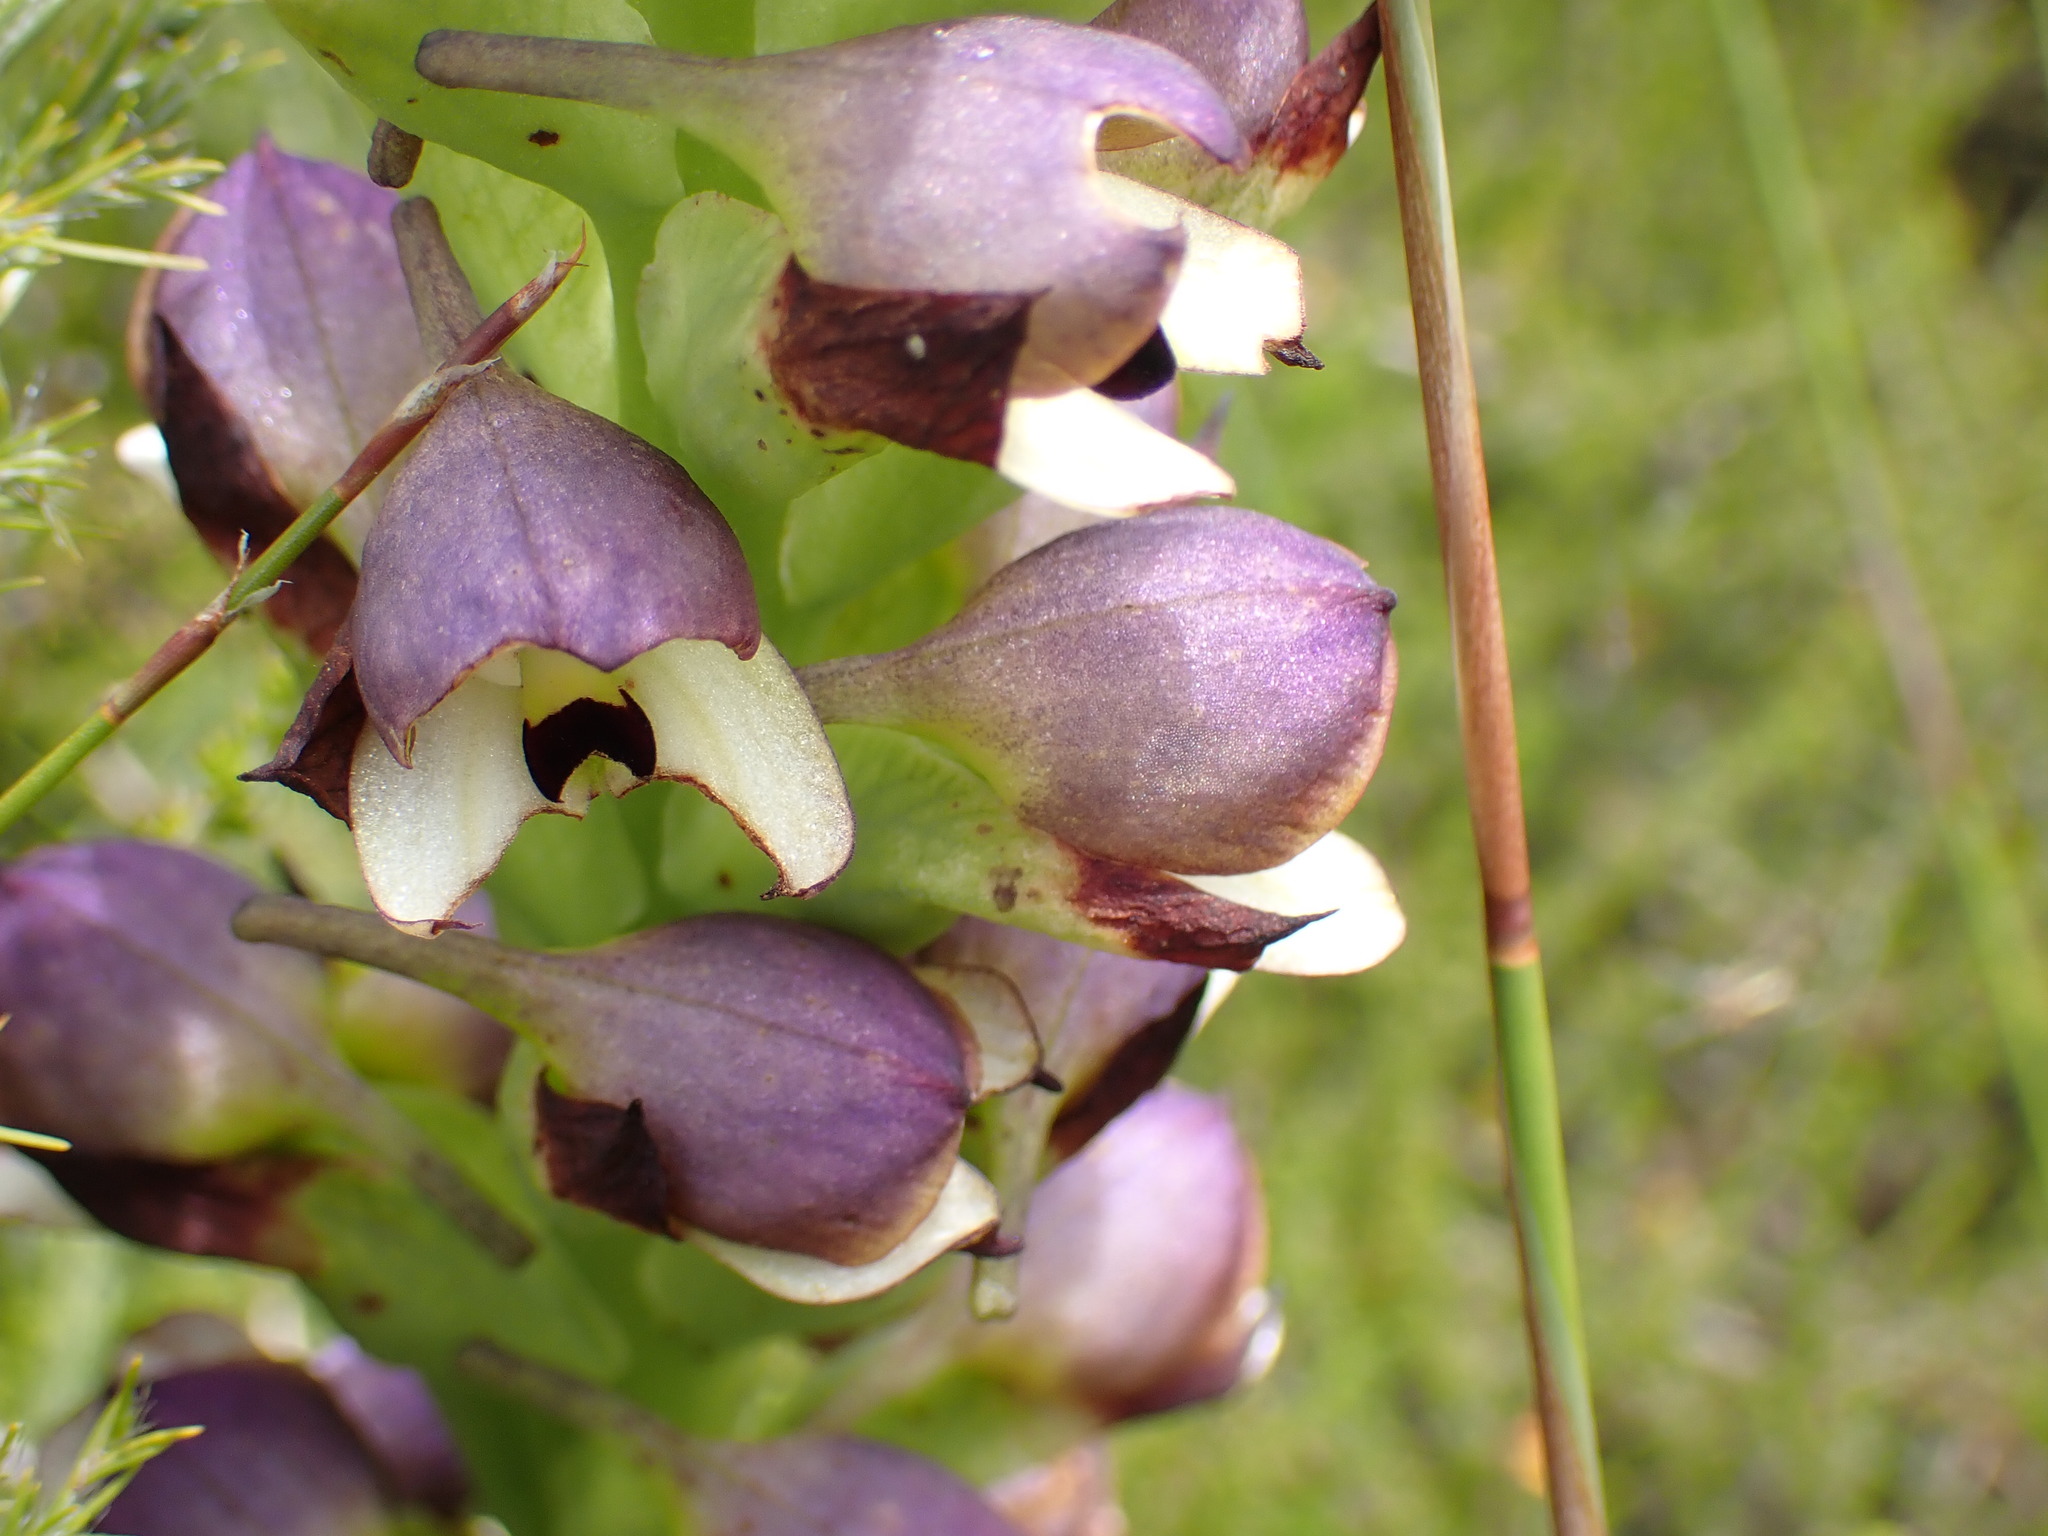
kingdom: Plantae
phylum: Tracheophyta
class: Liliopsida
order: Asparagales
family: Orchidaceae
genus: Disa
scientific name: Disa cornuta
